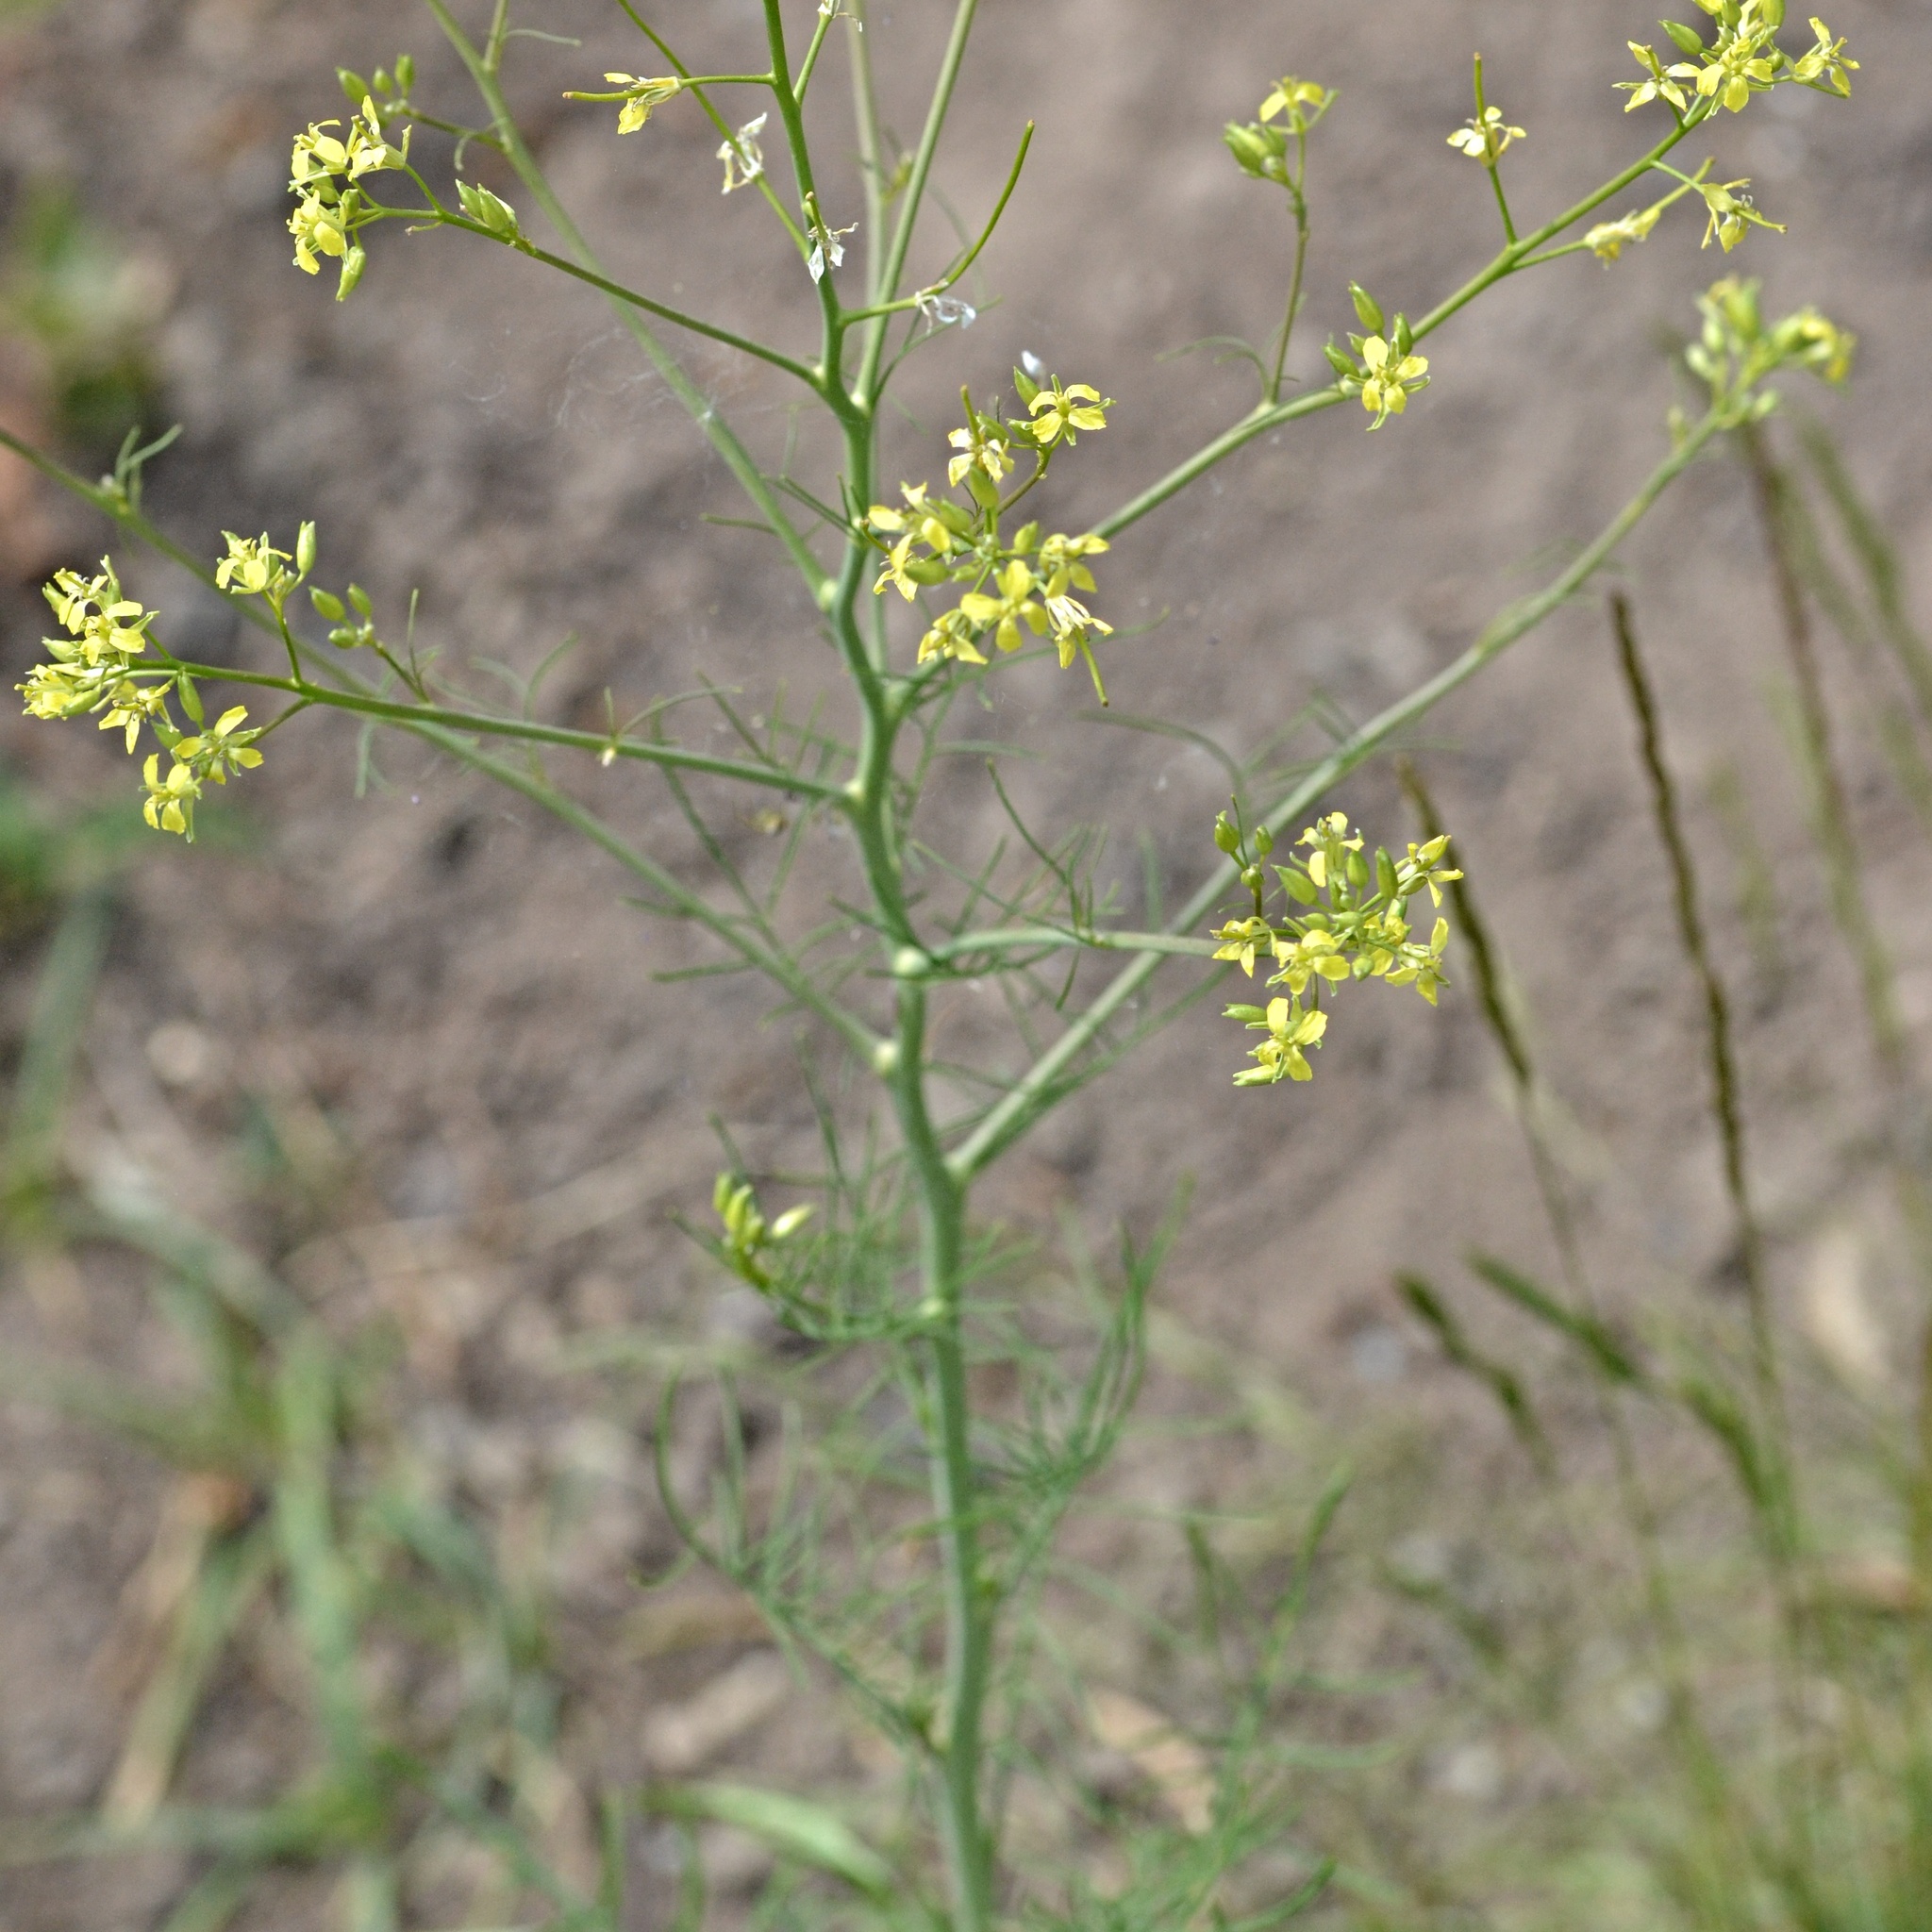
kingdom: Plantae
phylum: Tracheophyta
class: Magnoliopsida
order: Brassicales
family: Brassicaceae
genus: Sisymbrium
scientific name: Sisymbrium altissimum
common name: Tall rocket
